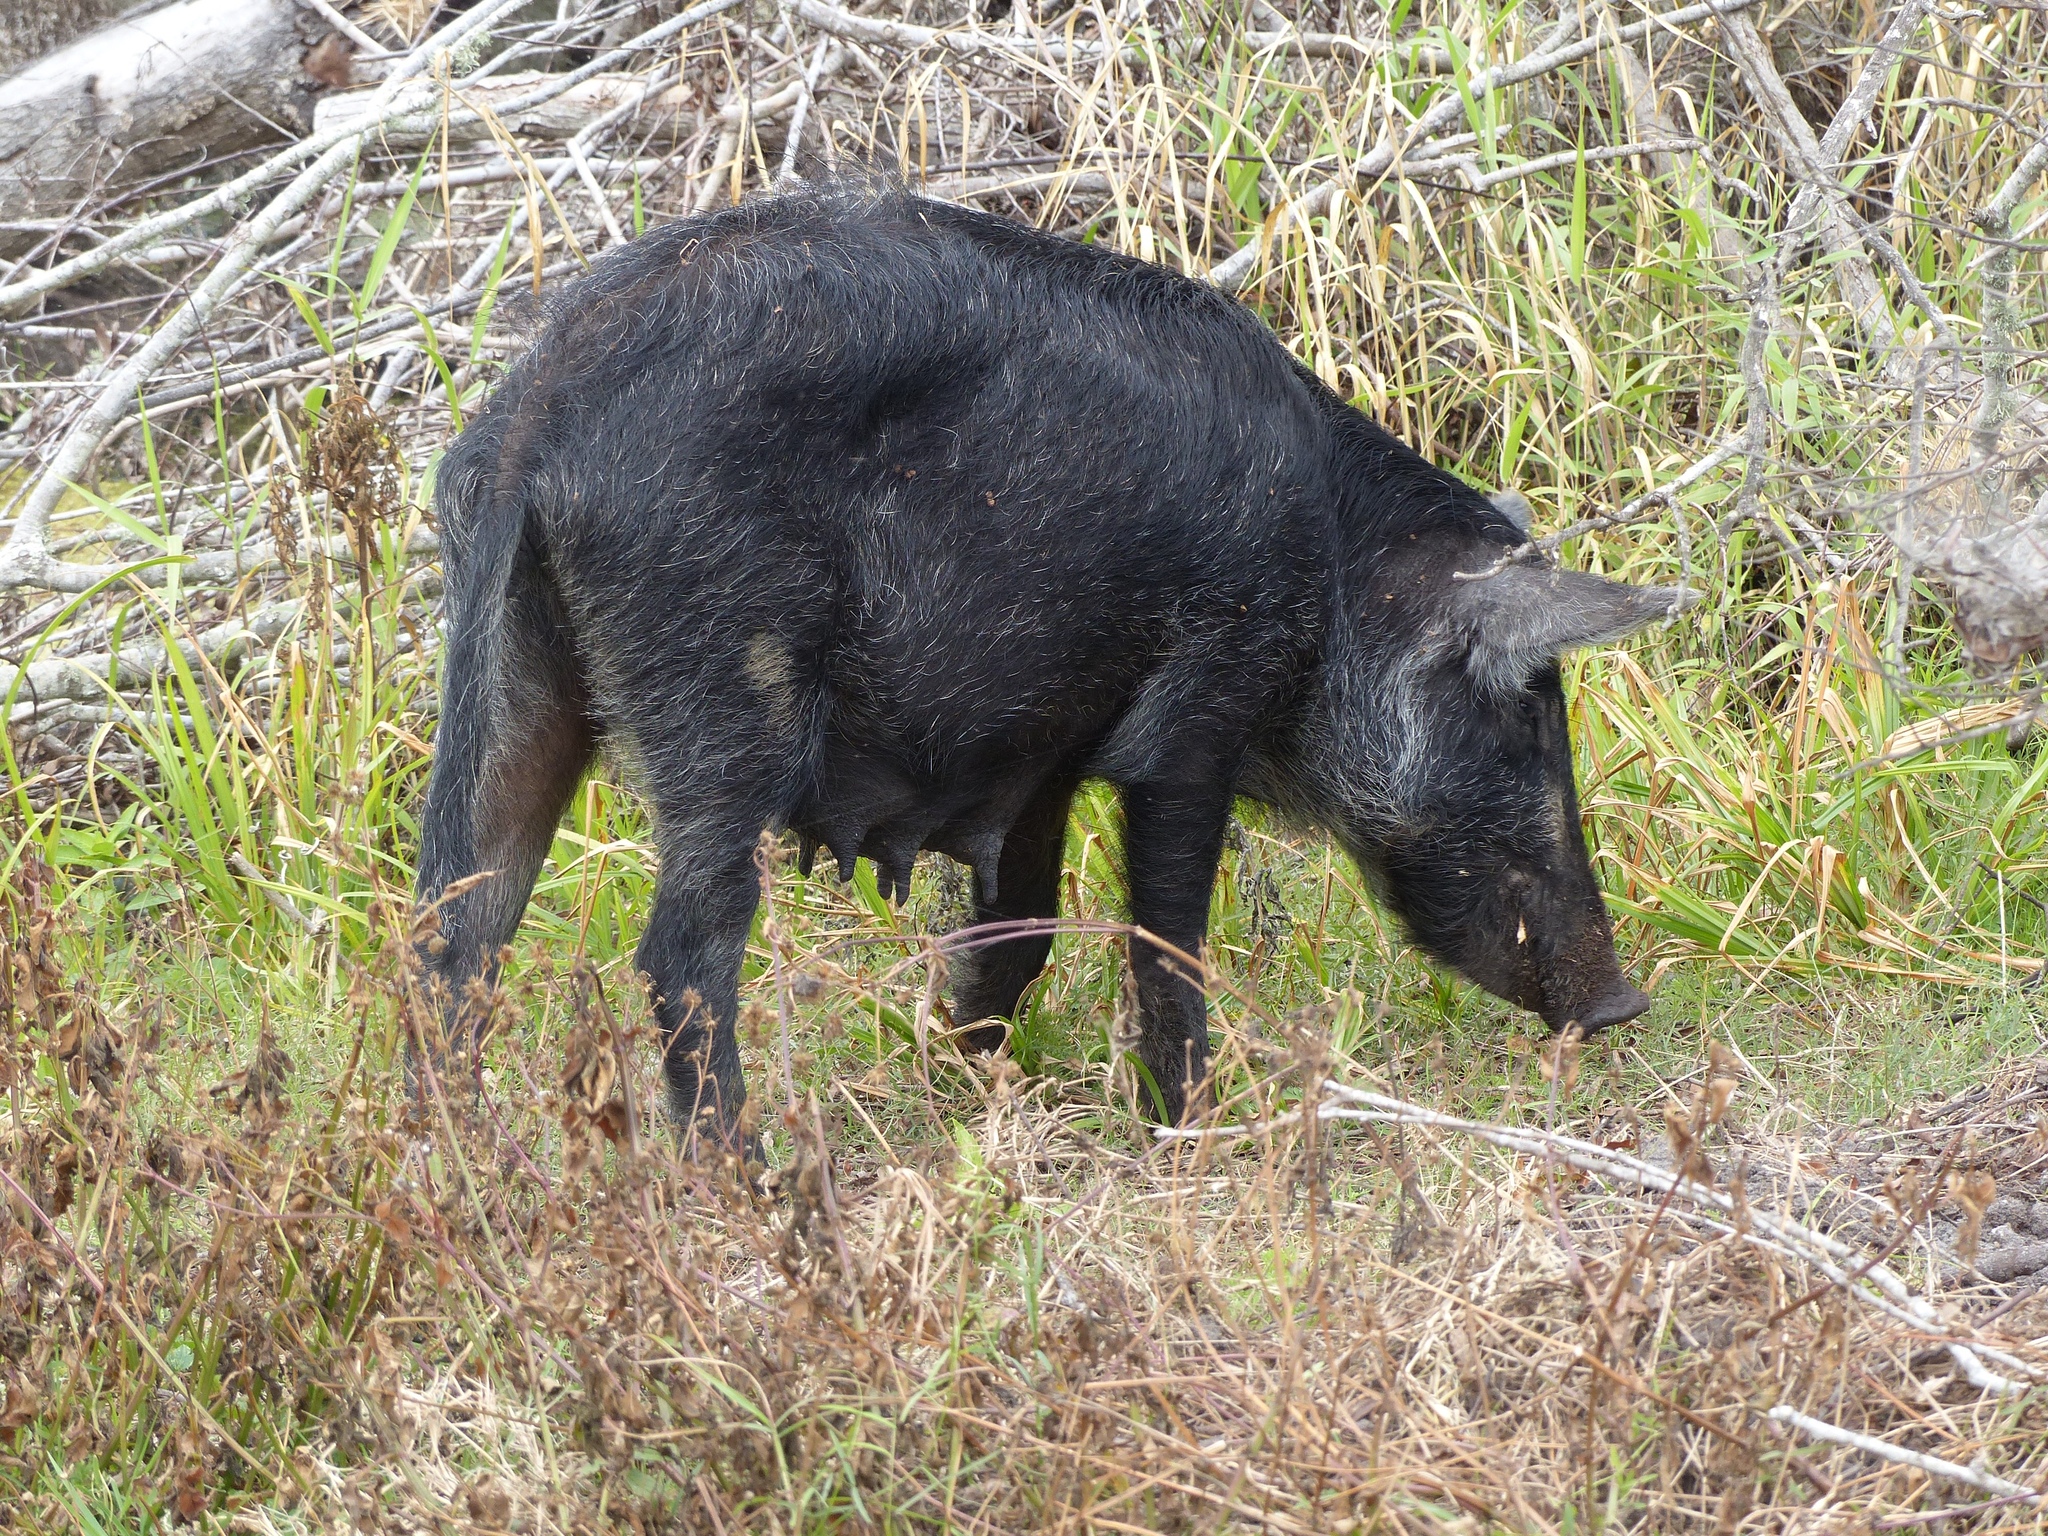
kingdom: Animalia
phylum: Chordata
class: Mammalia
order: Artiodactyla
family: Suidae
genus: Sus
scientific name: Sus scrofa
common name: Wild boar
